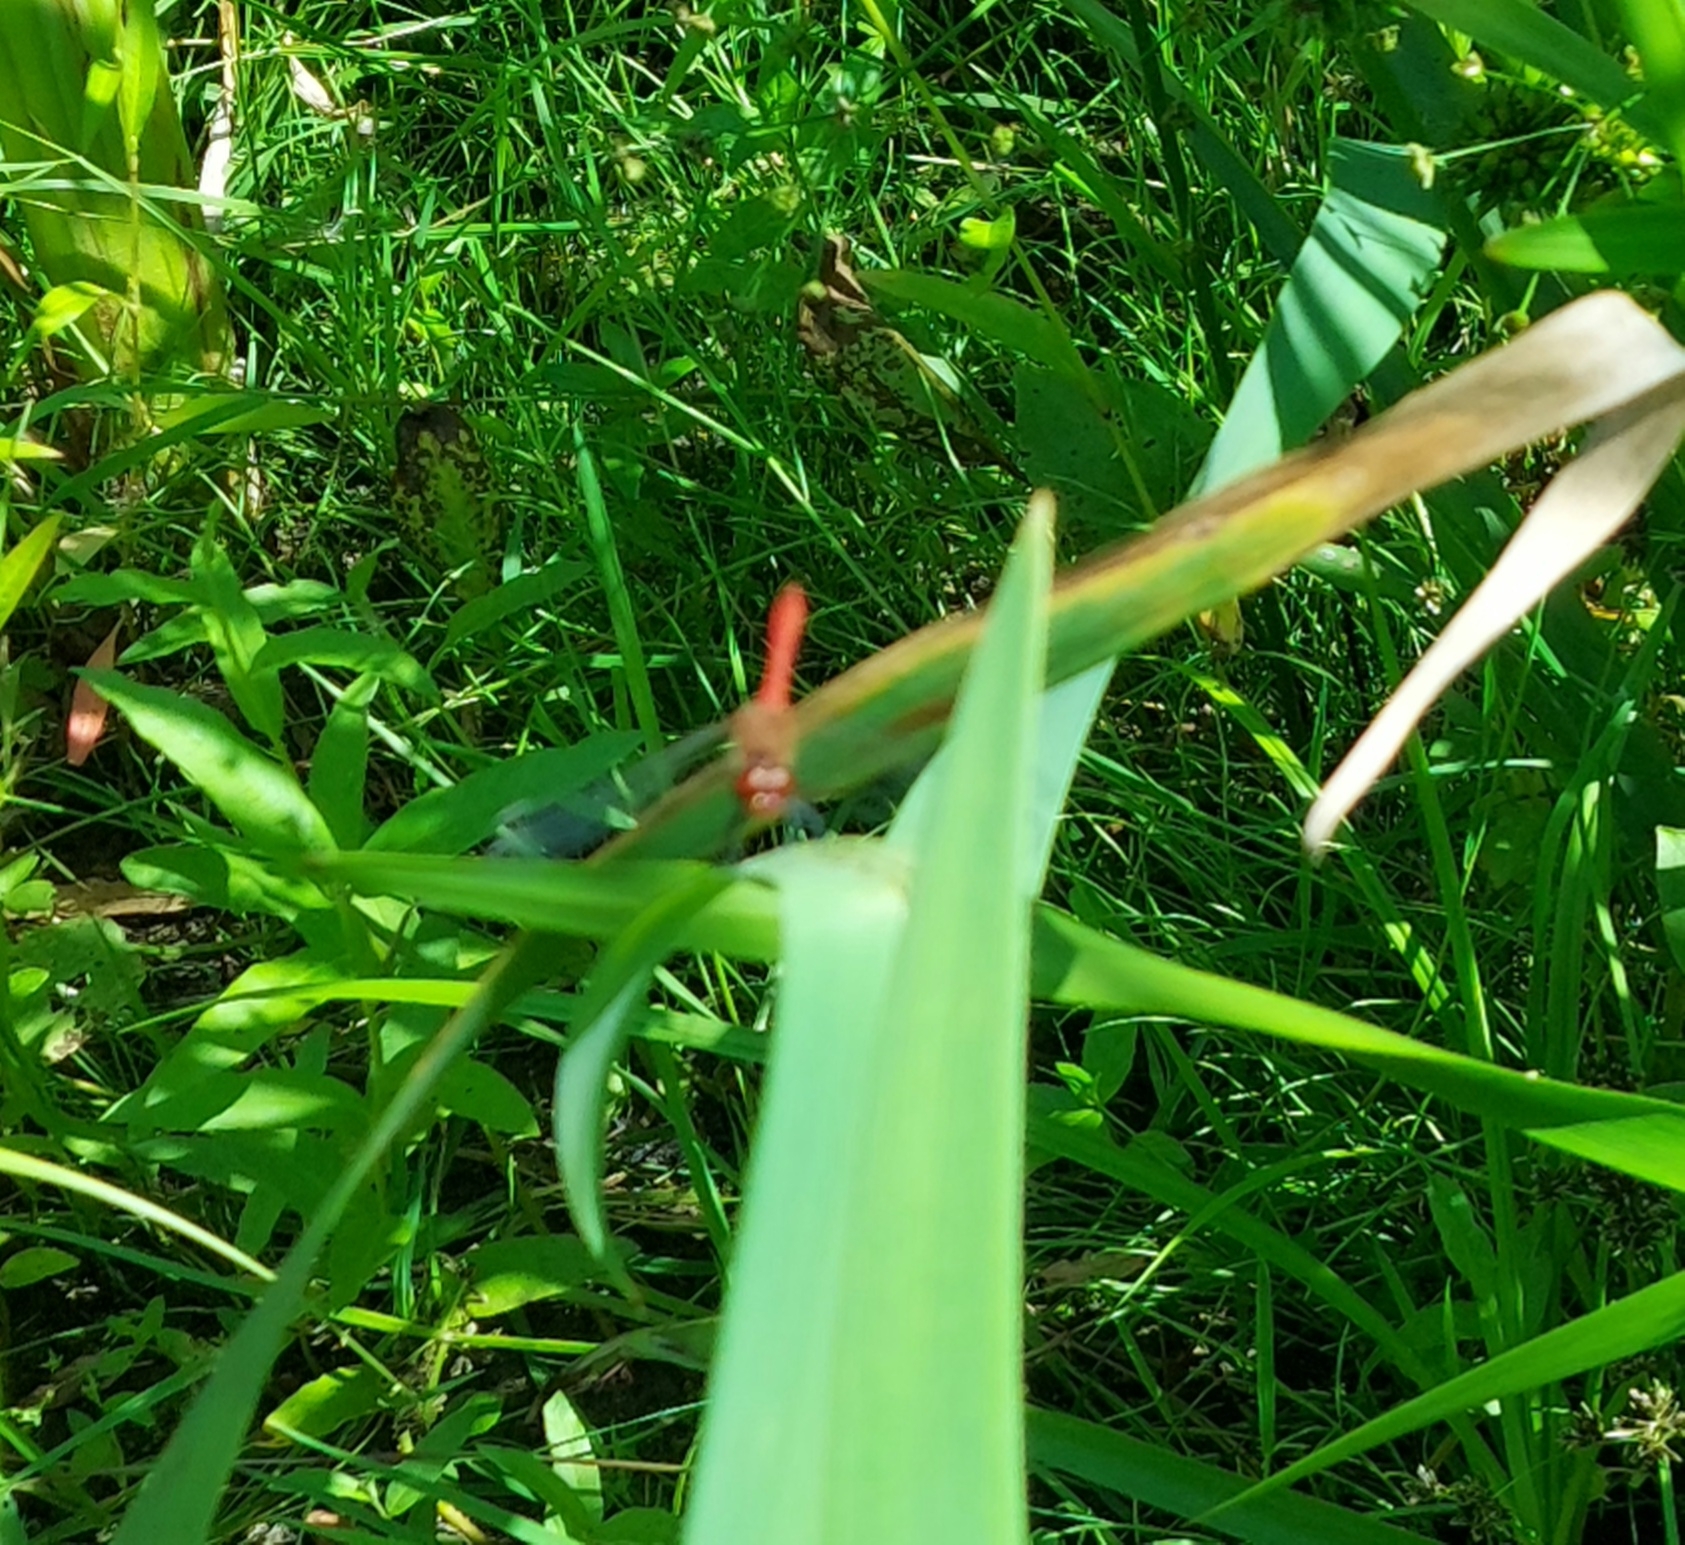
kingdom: Animalia
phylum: Arthropoda
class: Insecta
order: Odonata
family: Libellulidae
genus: Sympetrum
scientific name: Sympetrum sanguineum
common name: Ruddy darter
